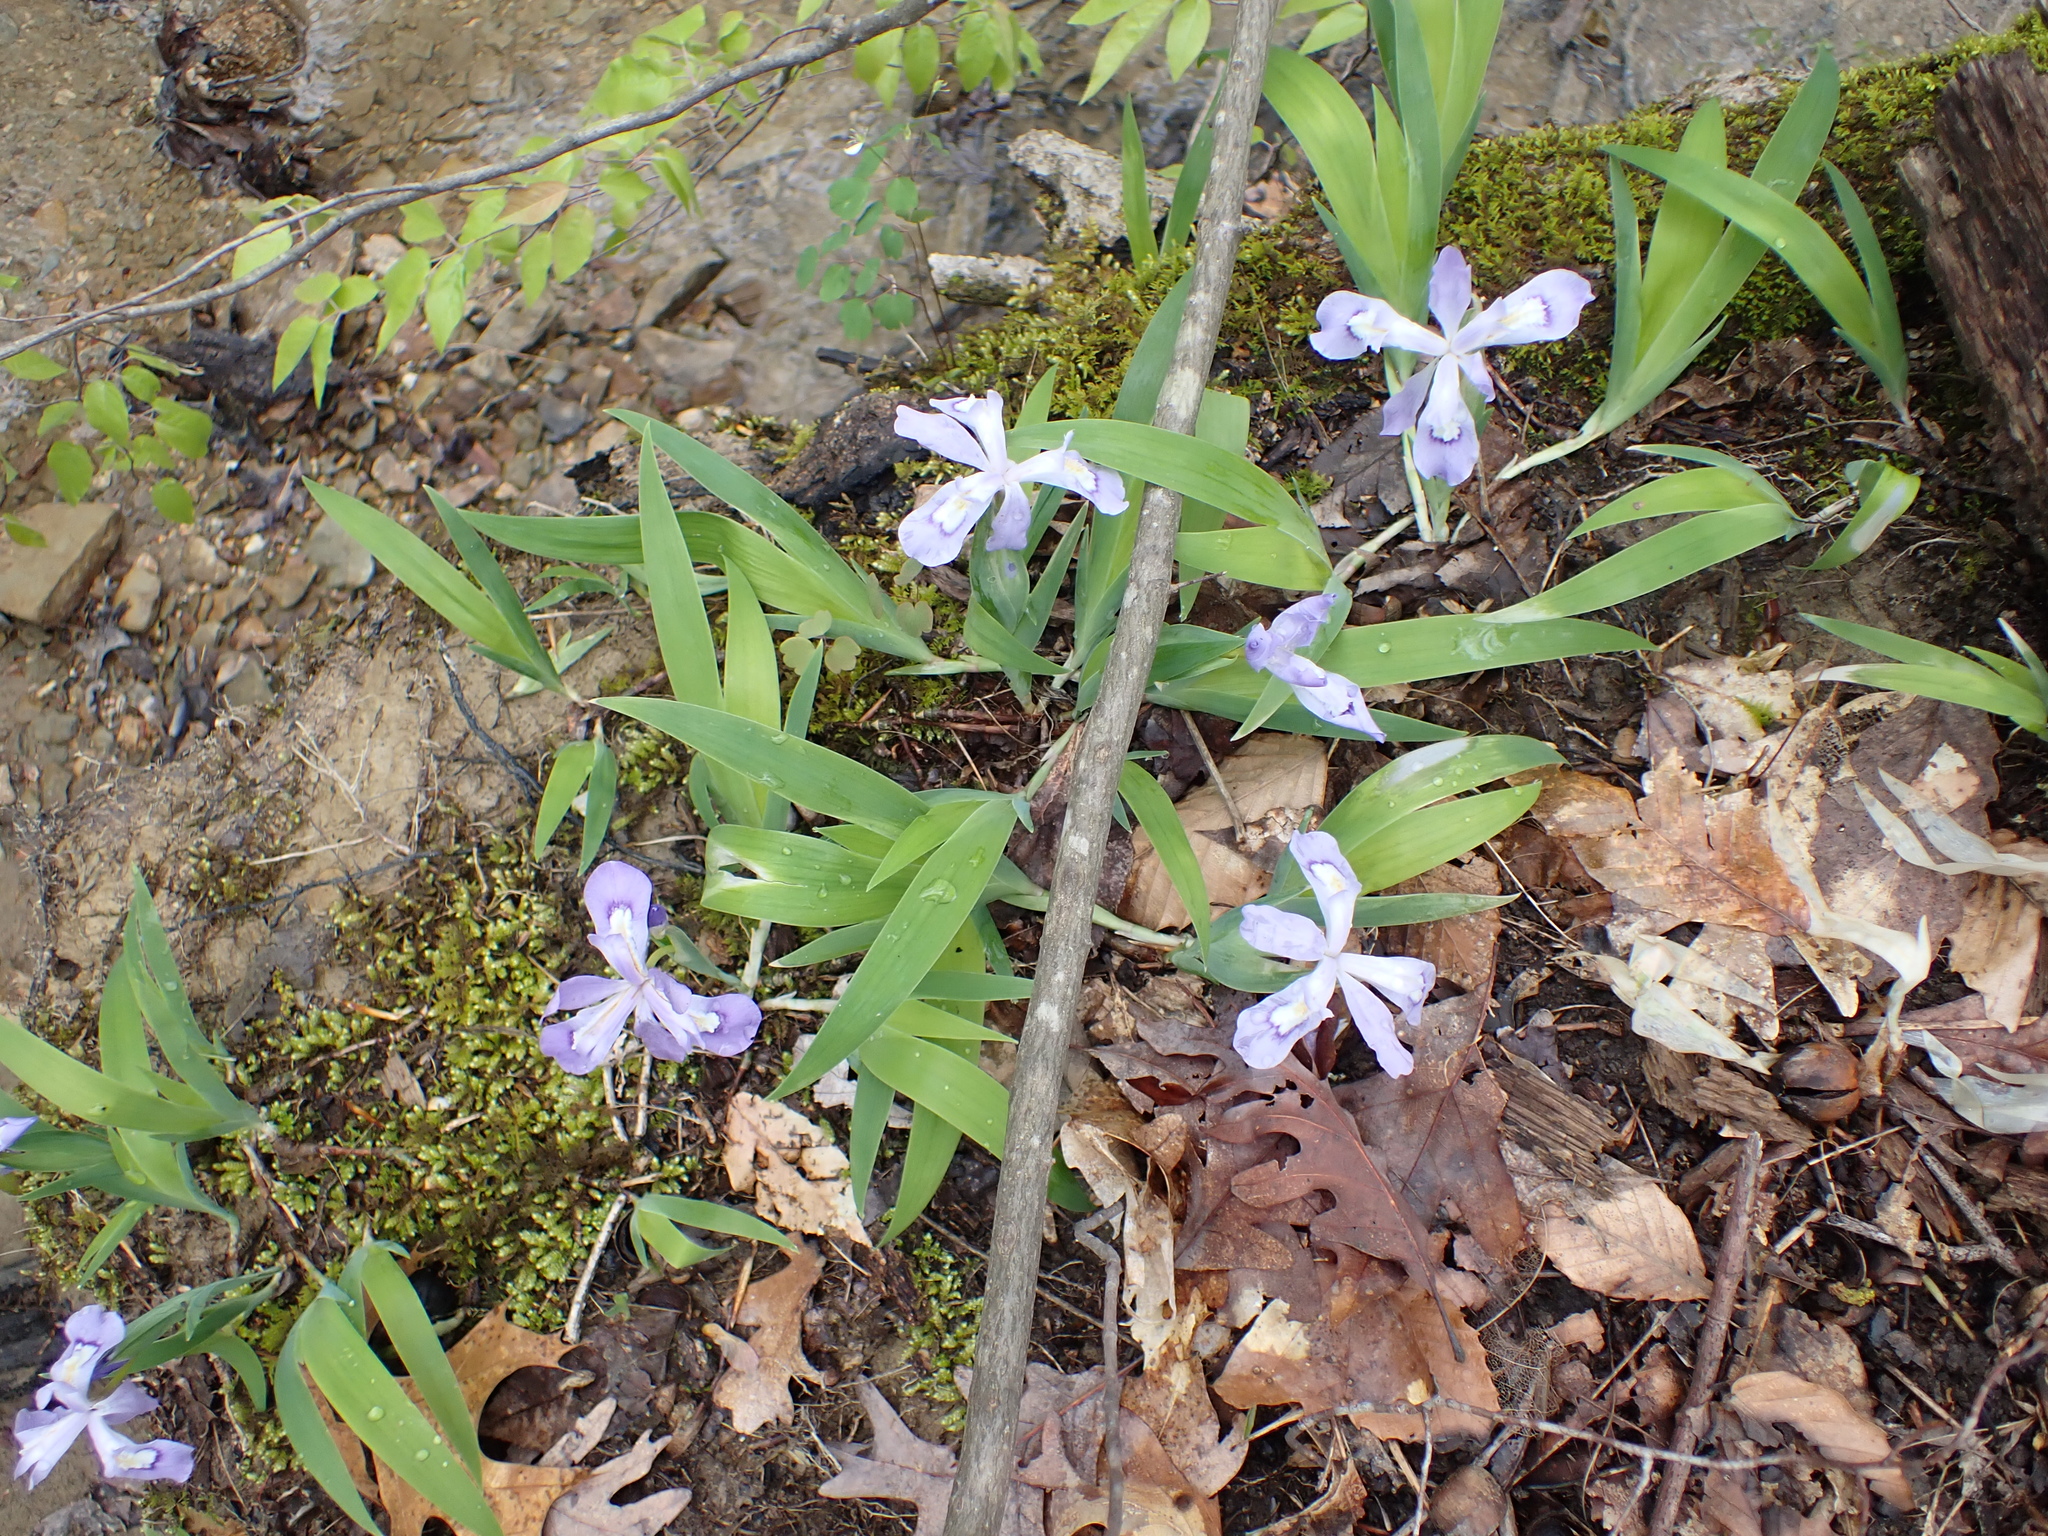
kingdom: Plantae
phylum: Tracheophyta
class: Liliopsida
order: Asparagales
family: Iridaceae
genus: Iris
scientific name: Iris cristata
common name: Crested iris
